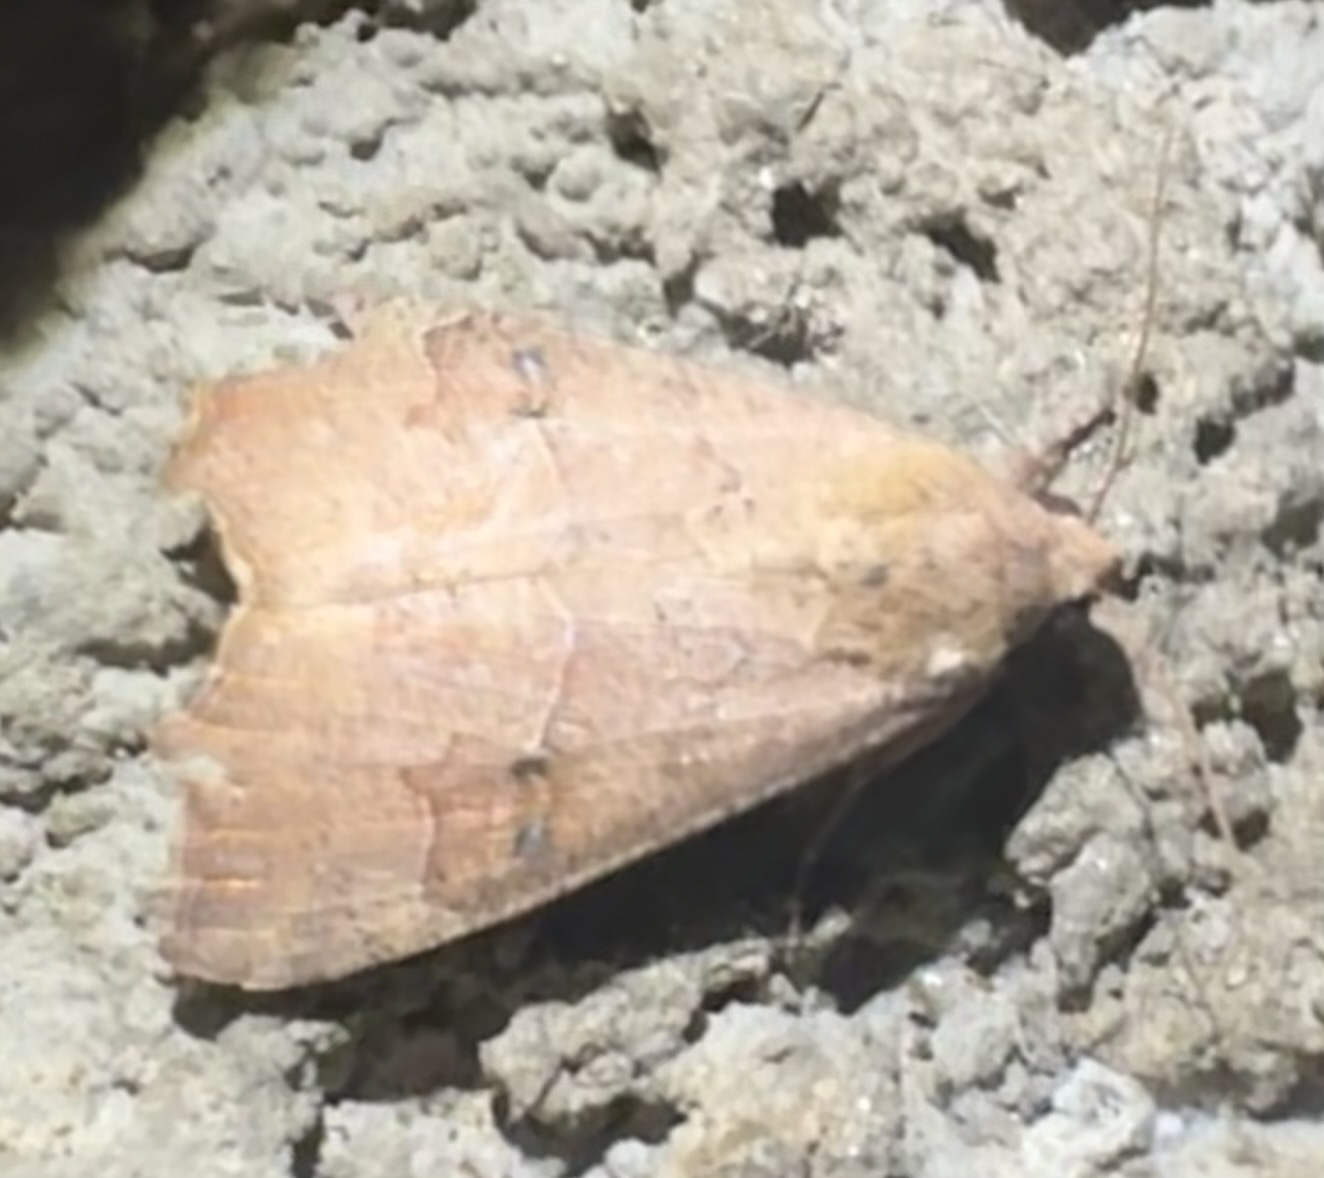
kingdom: Animalia
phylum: Arthropoda
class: Insecta
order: Lepidoptera
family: Erebidae
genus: Anomis
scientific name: Anomis sabulifera
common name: Angled gem
